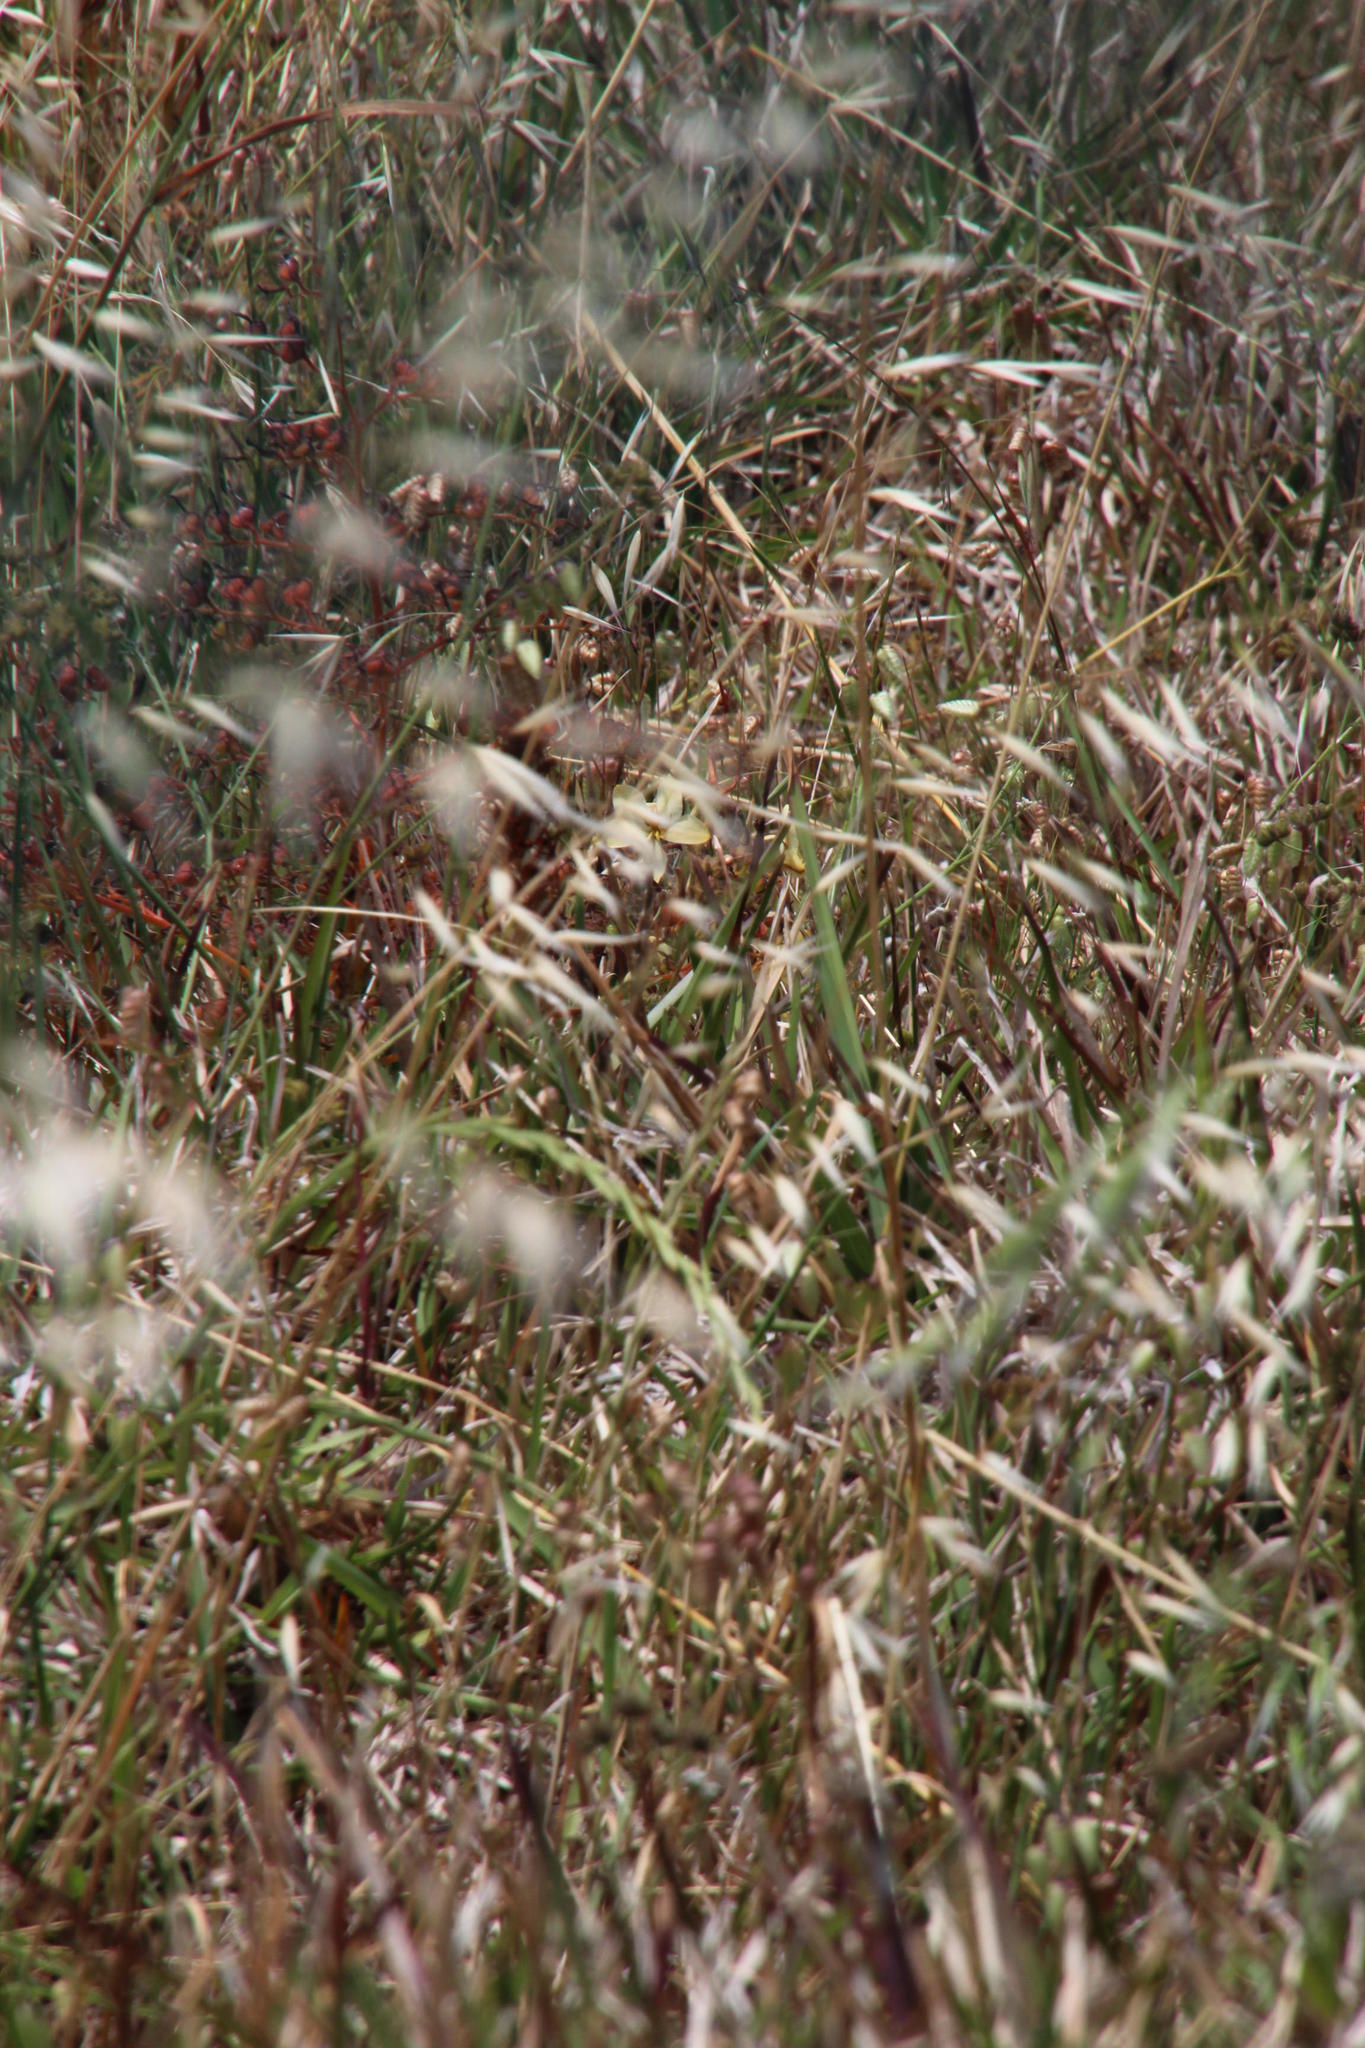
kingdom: Plantae
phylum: Tracheophyta
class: Liliopsida
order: Commelinales
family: Haemodoraceae
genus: Wachendorfia
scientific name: Wachendorfia paniculata
